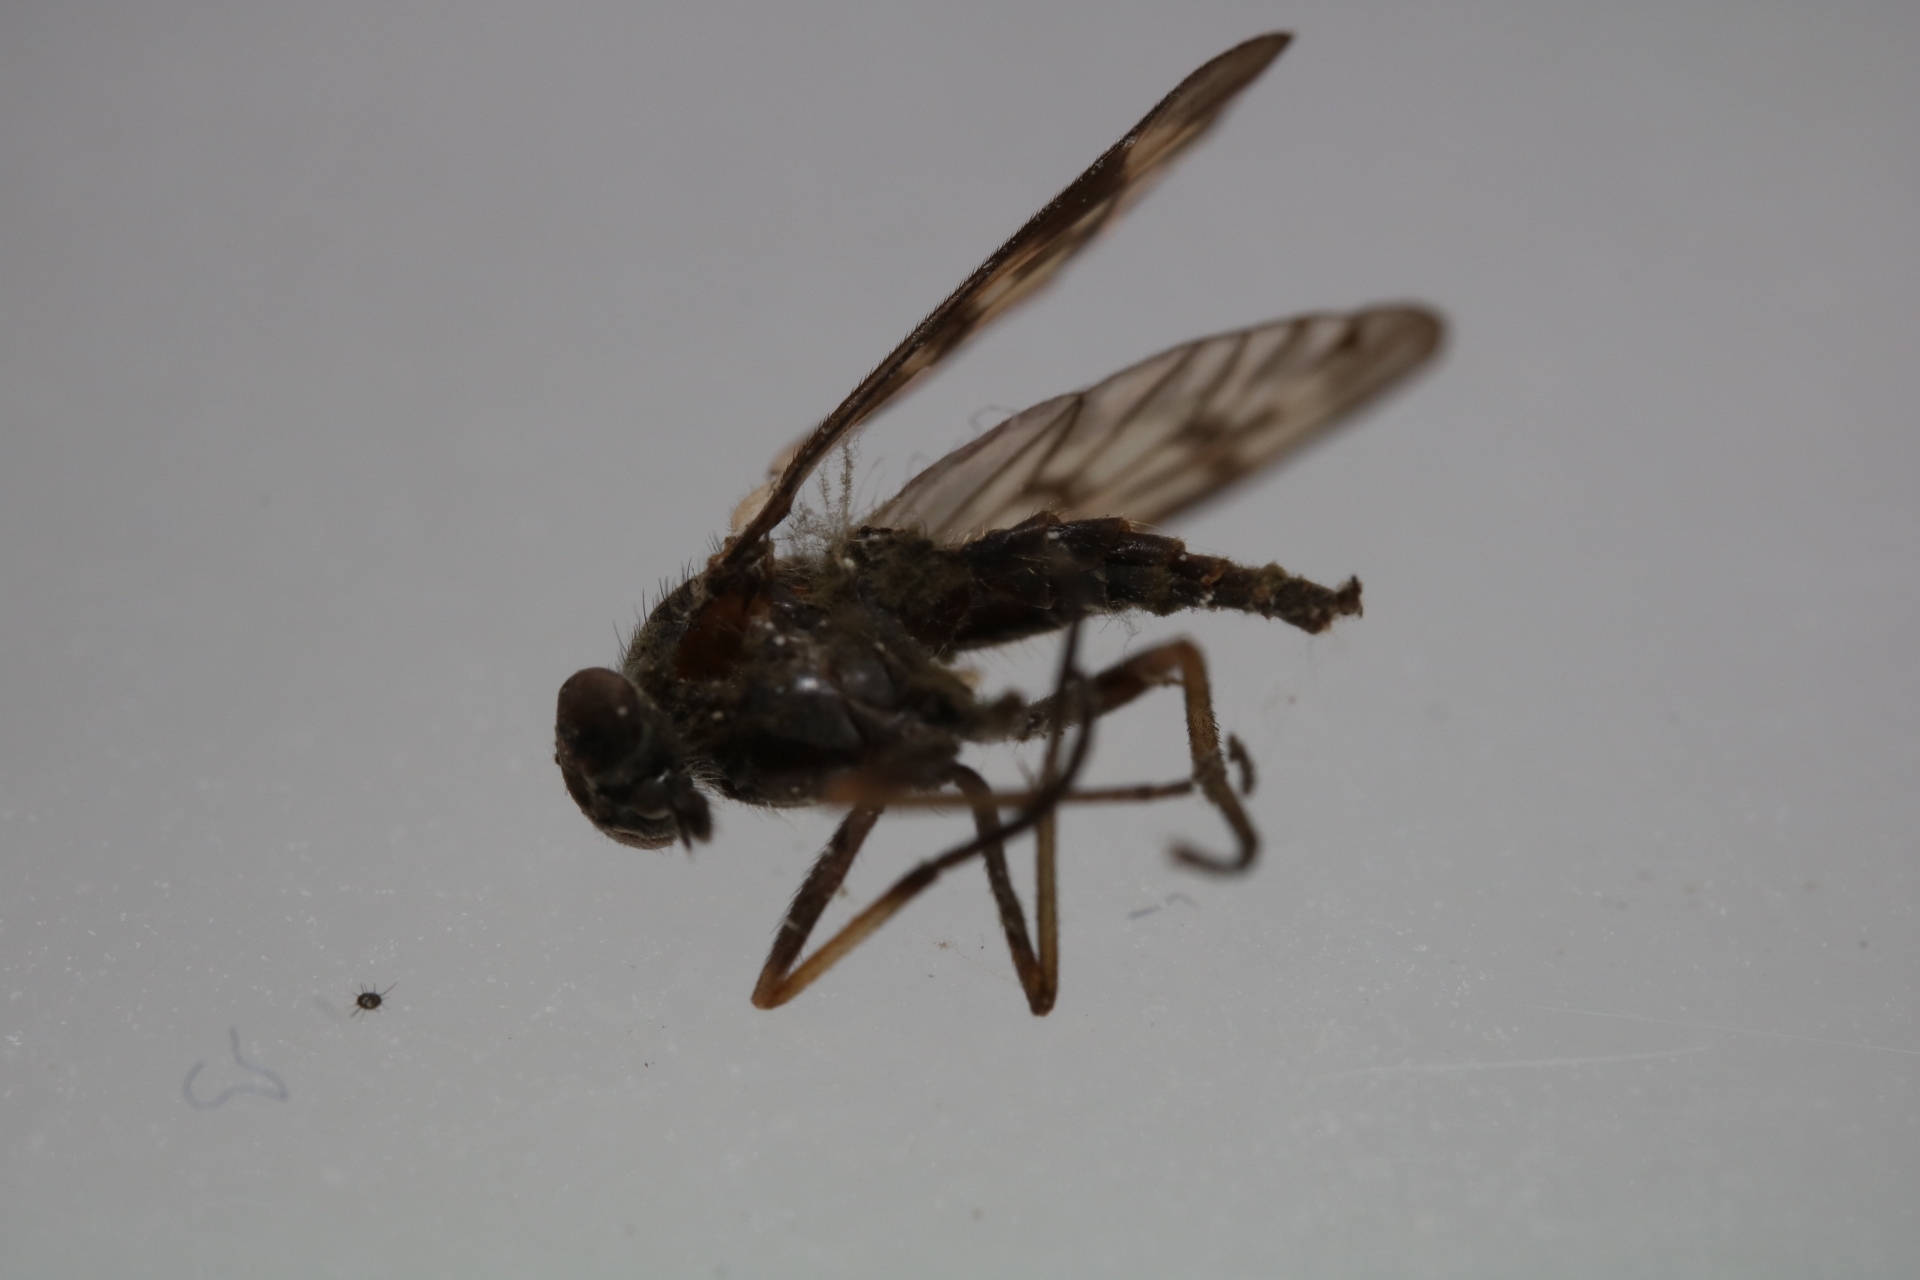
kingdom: Animalia
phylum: Arthropoda
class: Insecta
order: Diptera
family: Rhagionidae
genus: Rhagio
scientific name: Rhagio punctipennis
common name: Lesser variegated snipe fly
